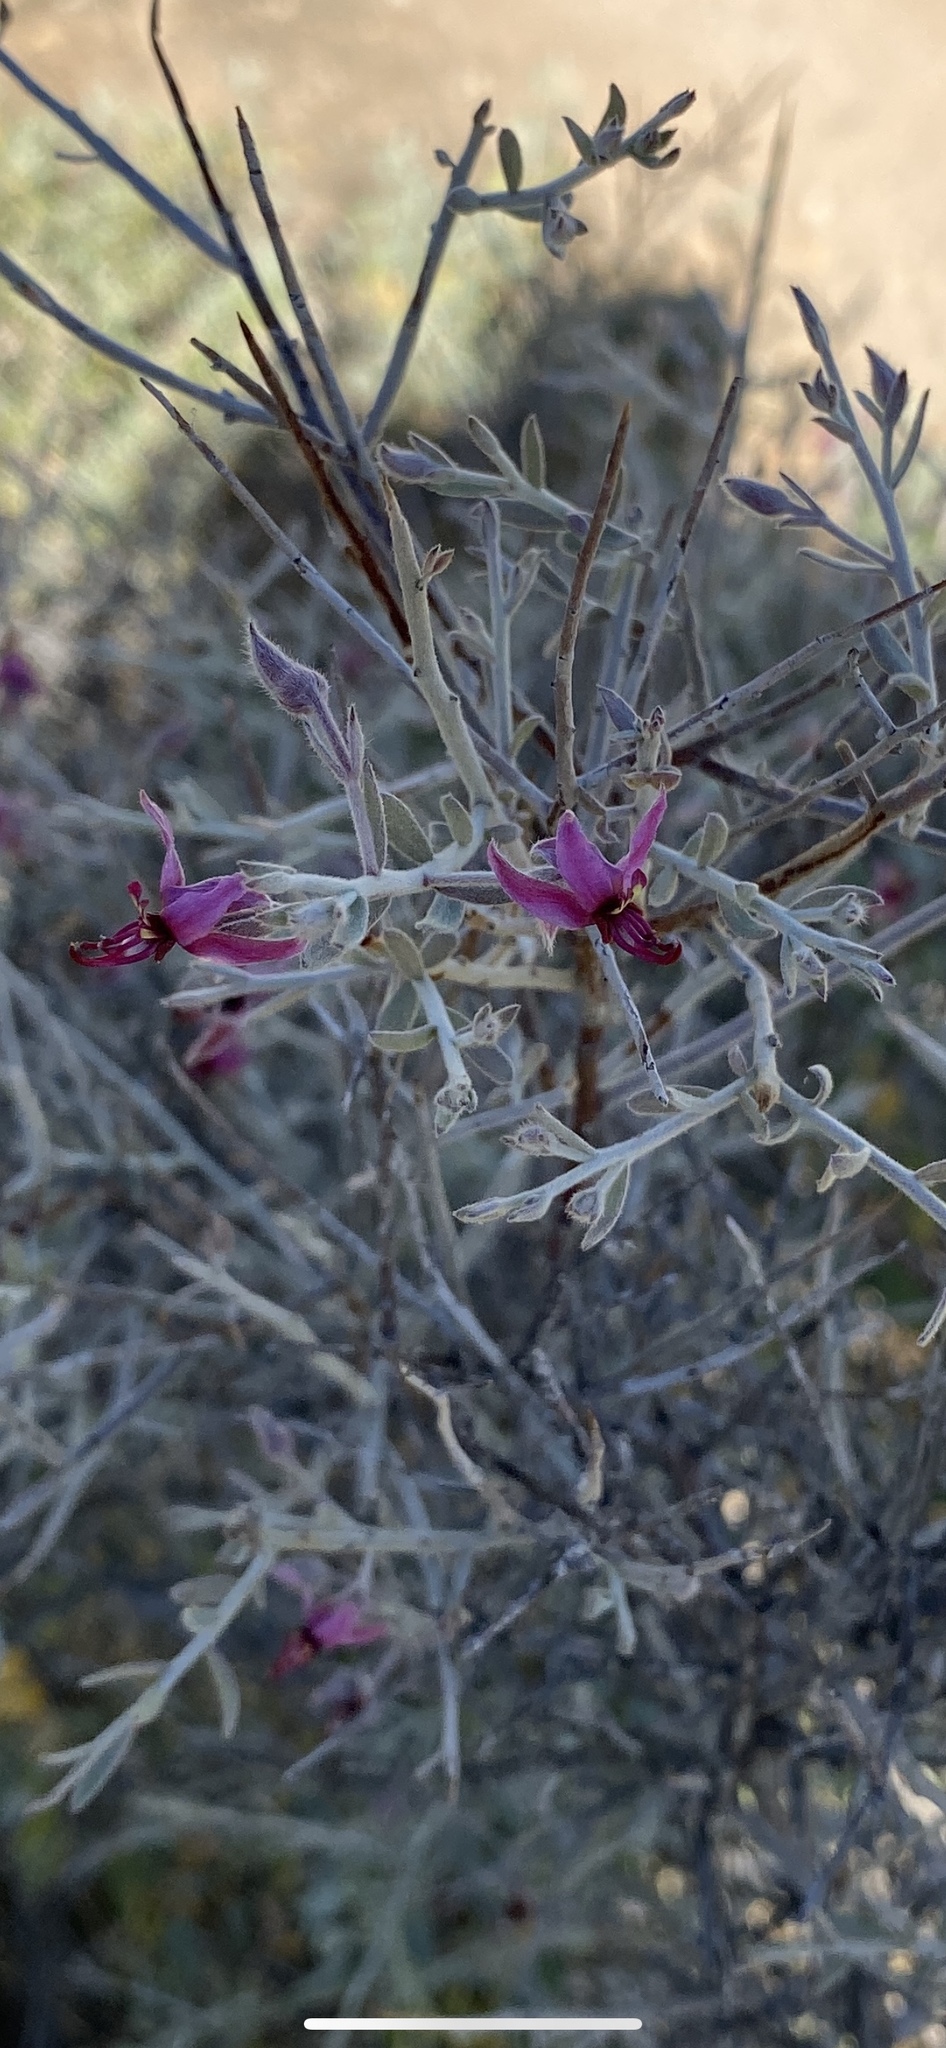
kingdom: Plantae
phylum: Tracheophyta
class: Magnoliopsida
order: Zygophyllales
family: Krameriaceae
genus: Krameria
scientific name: Krameria bicolor
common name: White ratany
